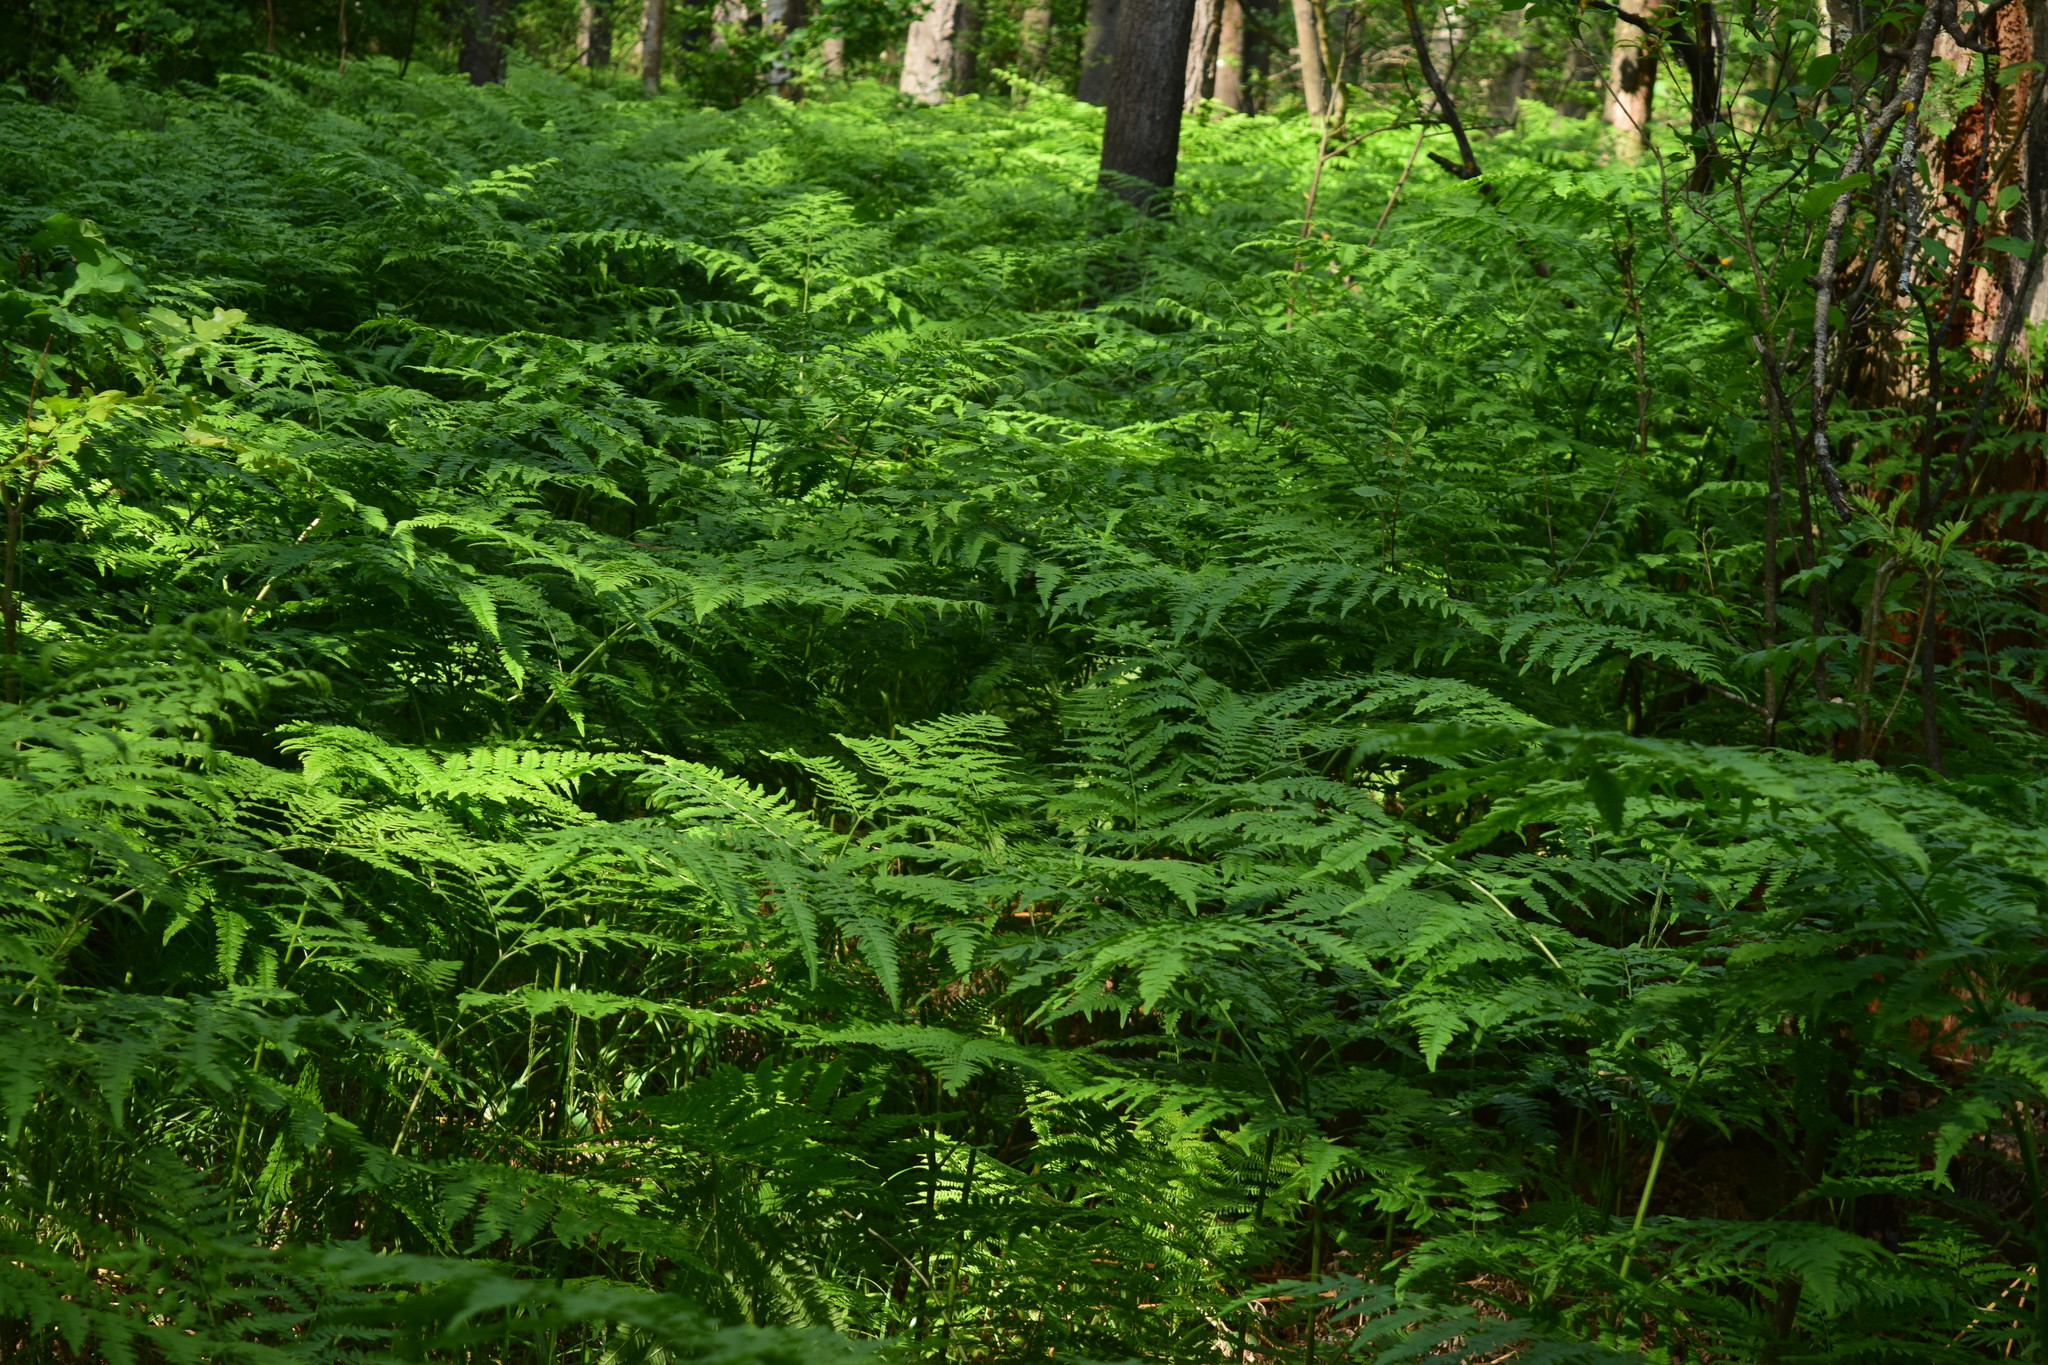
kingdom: Plantae
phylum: Tracheophyta
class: Polypodiopsida
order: Polypodiales
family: Dennstaedtiaceae
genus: Pteridium
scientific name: Pteridium aquilinum
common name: Bracken
